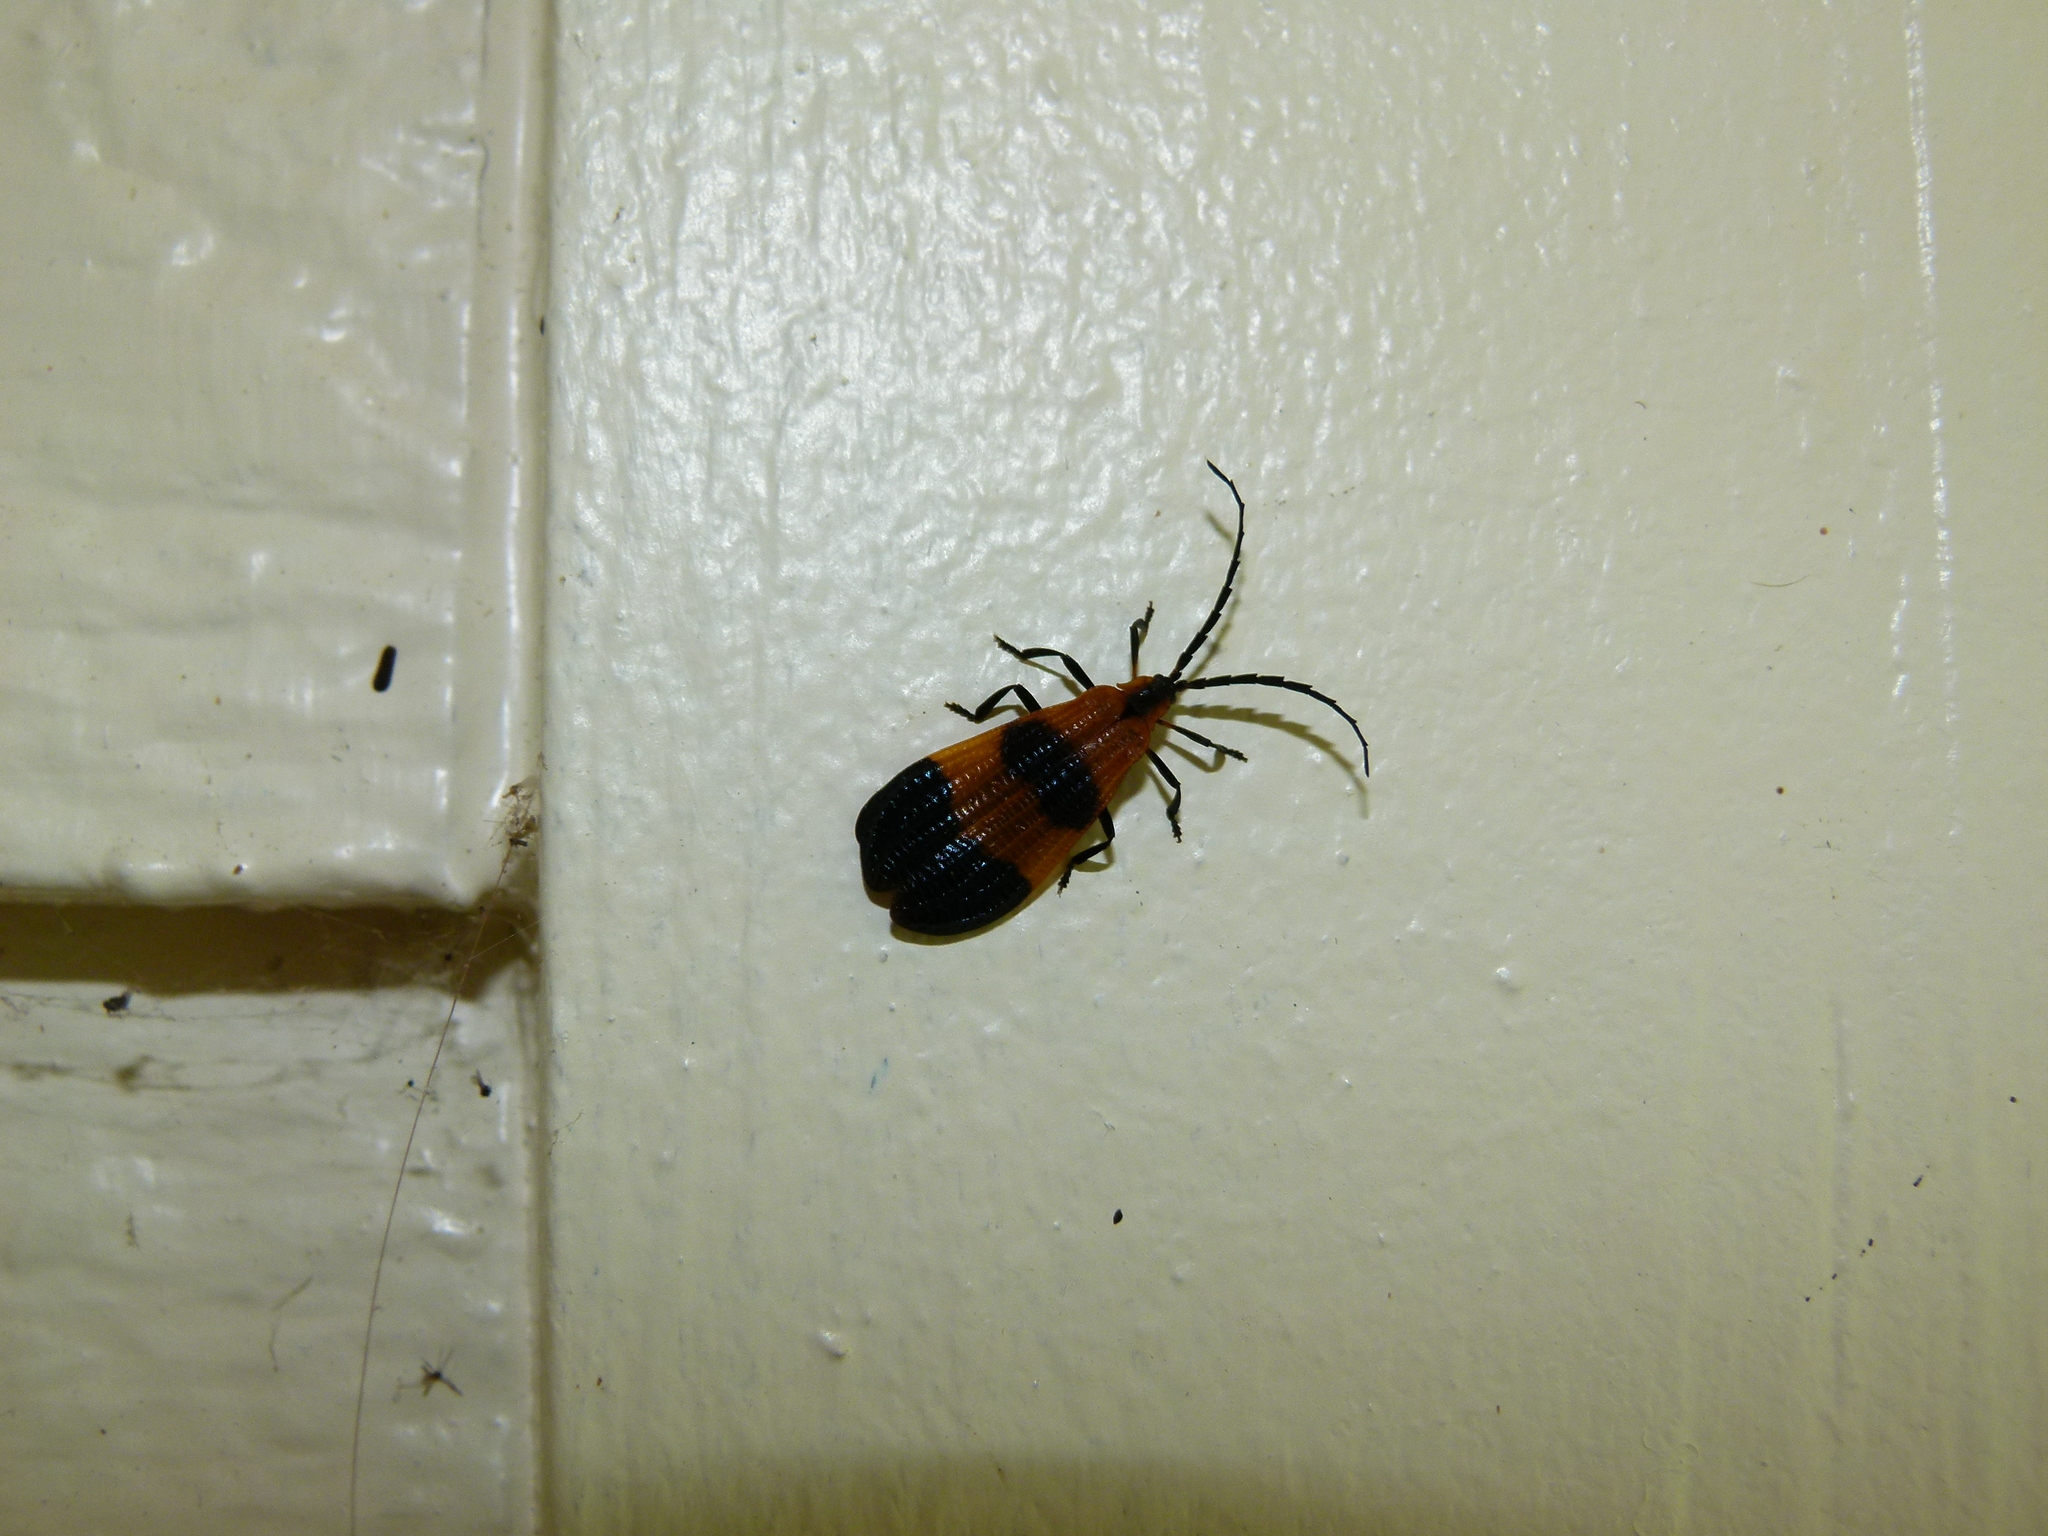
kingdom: Animalia
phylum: Arthropoda
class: Insecta
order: Coleoptera
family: Lycidae
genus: Calopteron
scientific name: Calopteron terminale
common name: End band net-winged beetle
